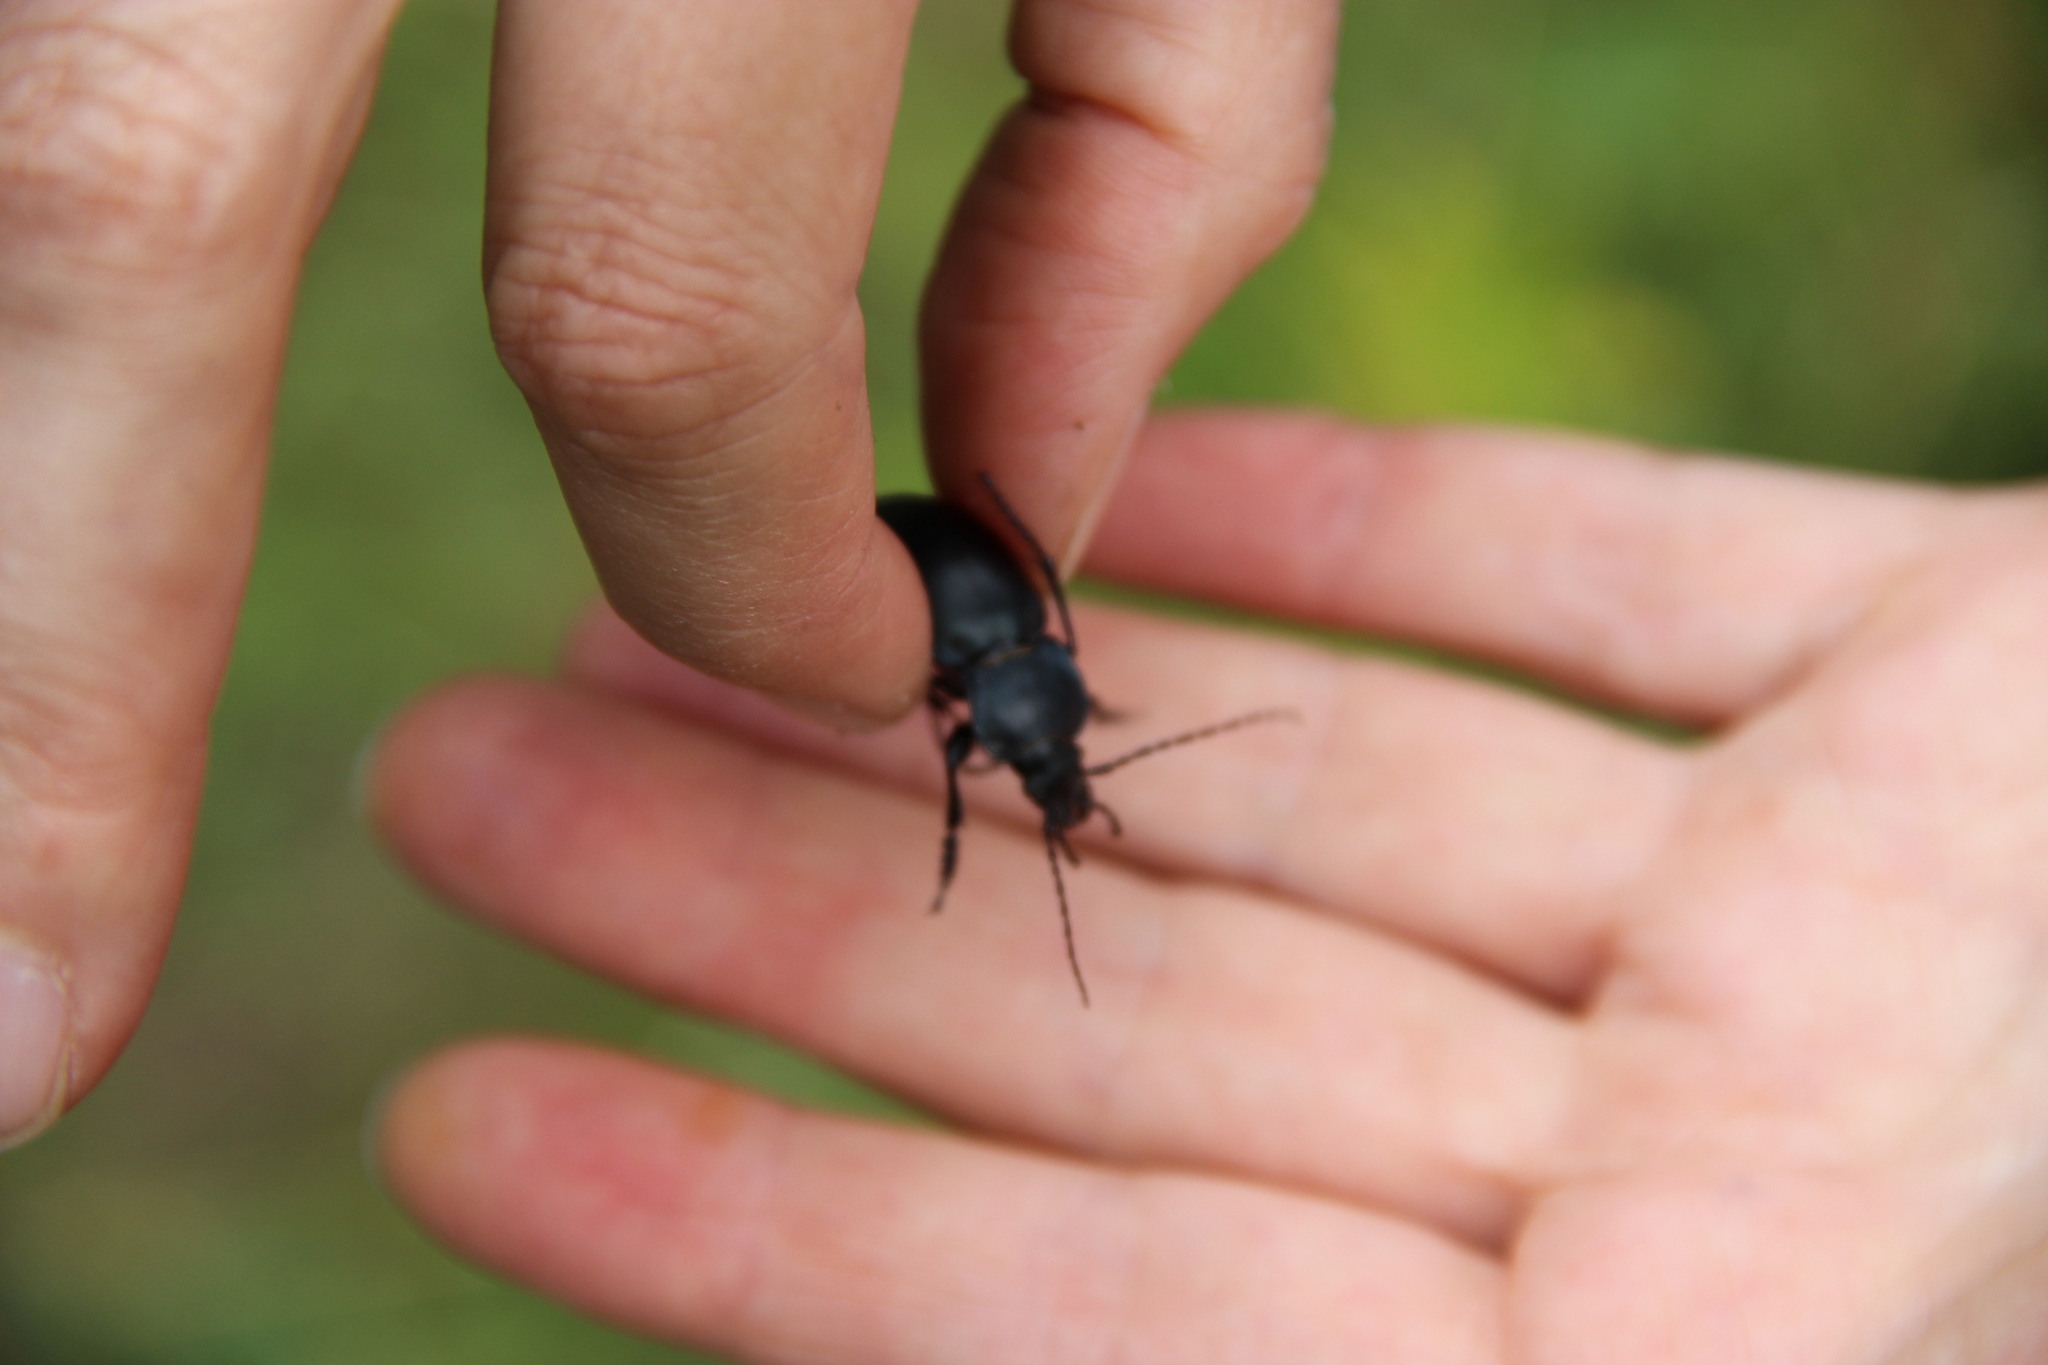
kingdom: Animalia
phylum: Arthropoda
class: Insecta
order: Coleoptera
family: Carabidae
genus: Carabus
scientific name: Carabus glabratus
